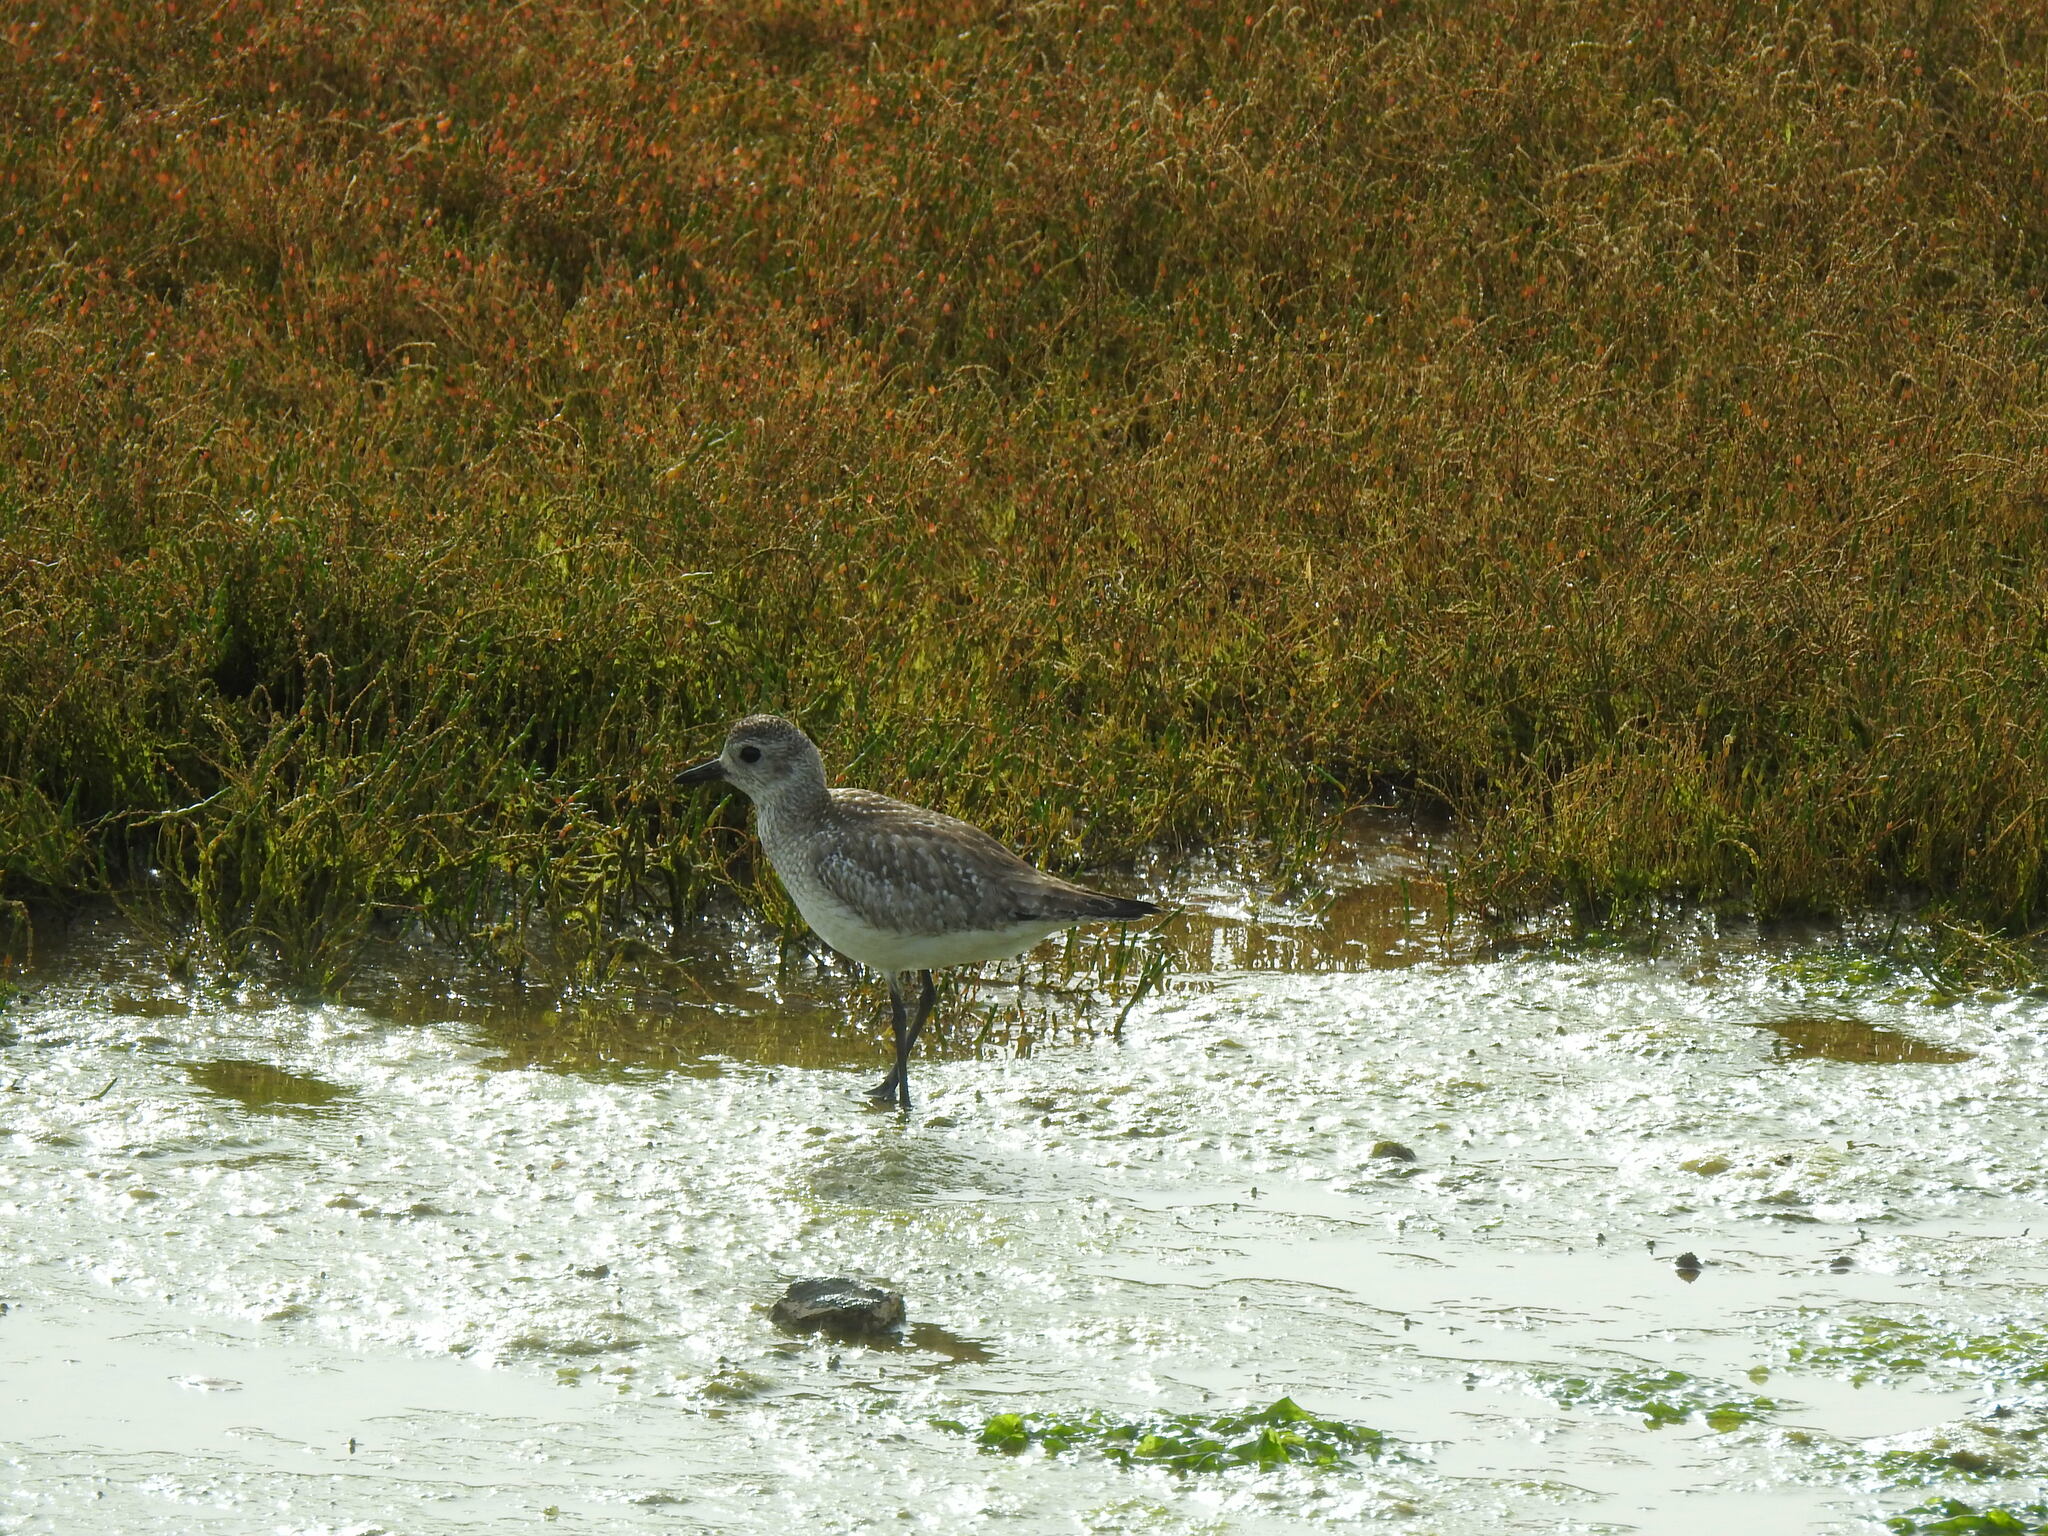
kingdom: Animalia
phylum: Chordata
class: Aves
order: Charadriiformes
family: Charadriidae
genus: Pluvialis
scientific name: Pluvialis squatarola
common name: Grey plover
